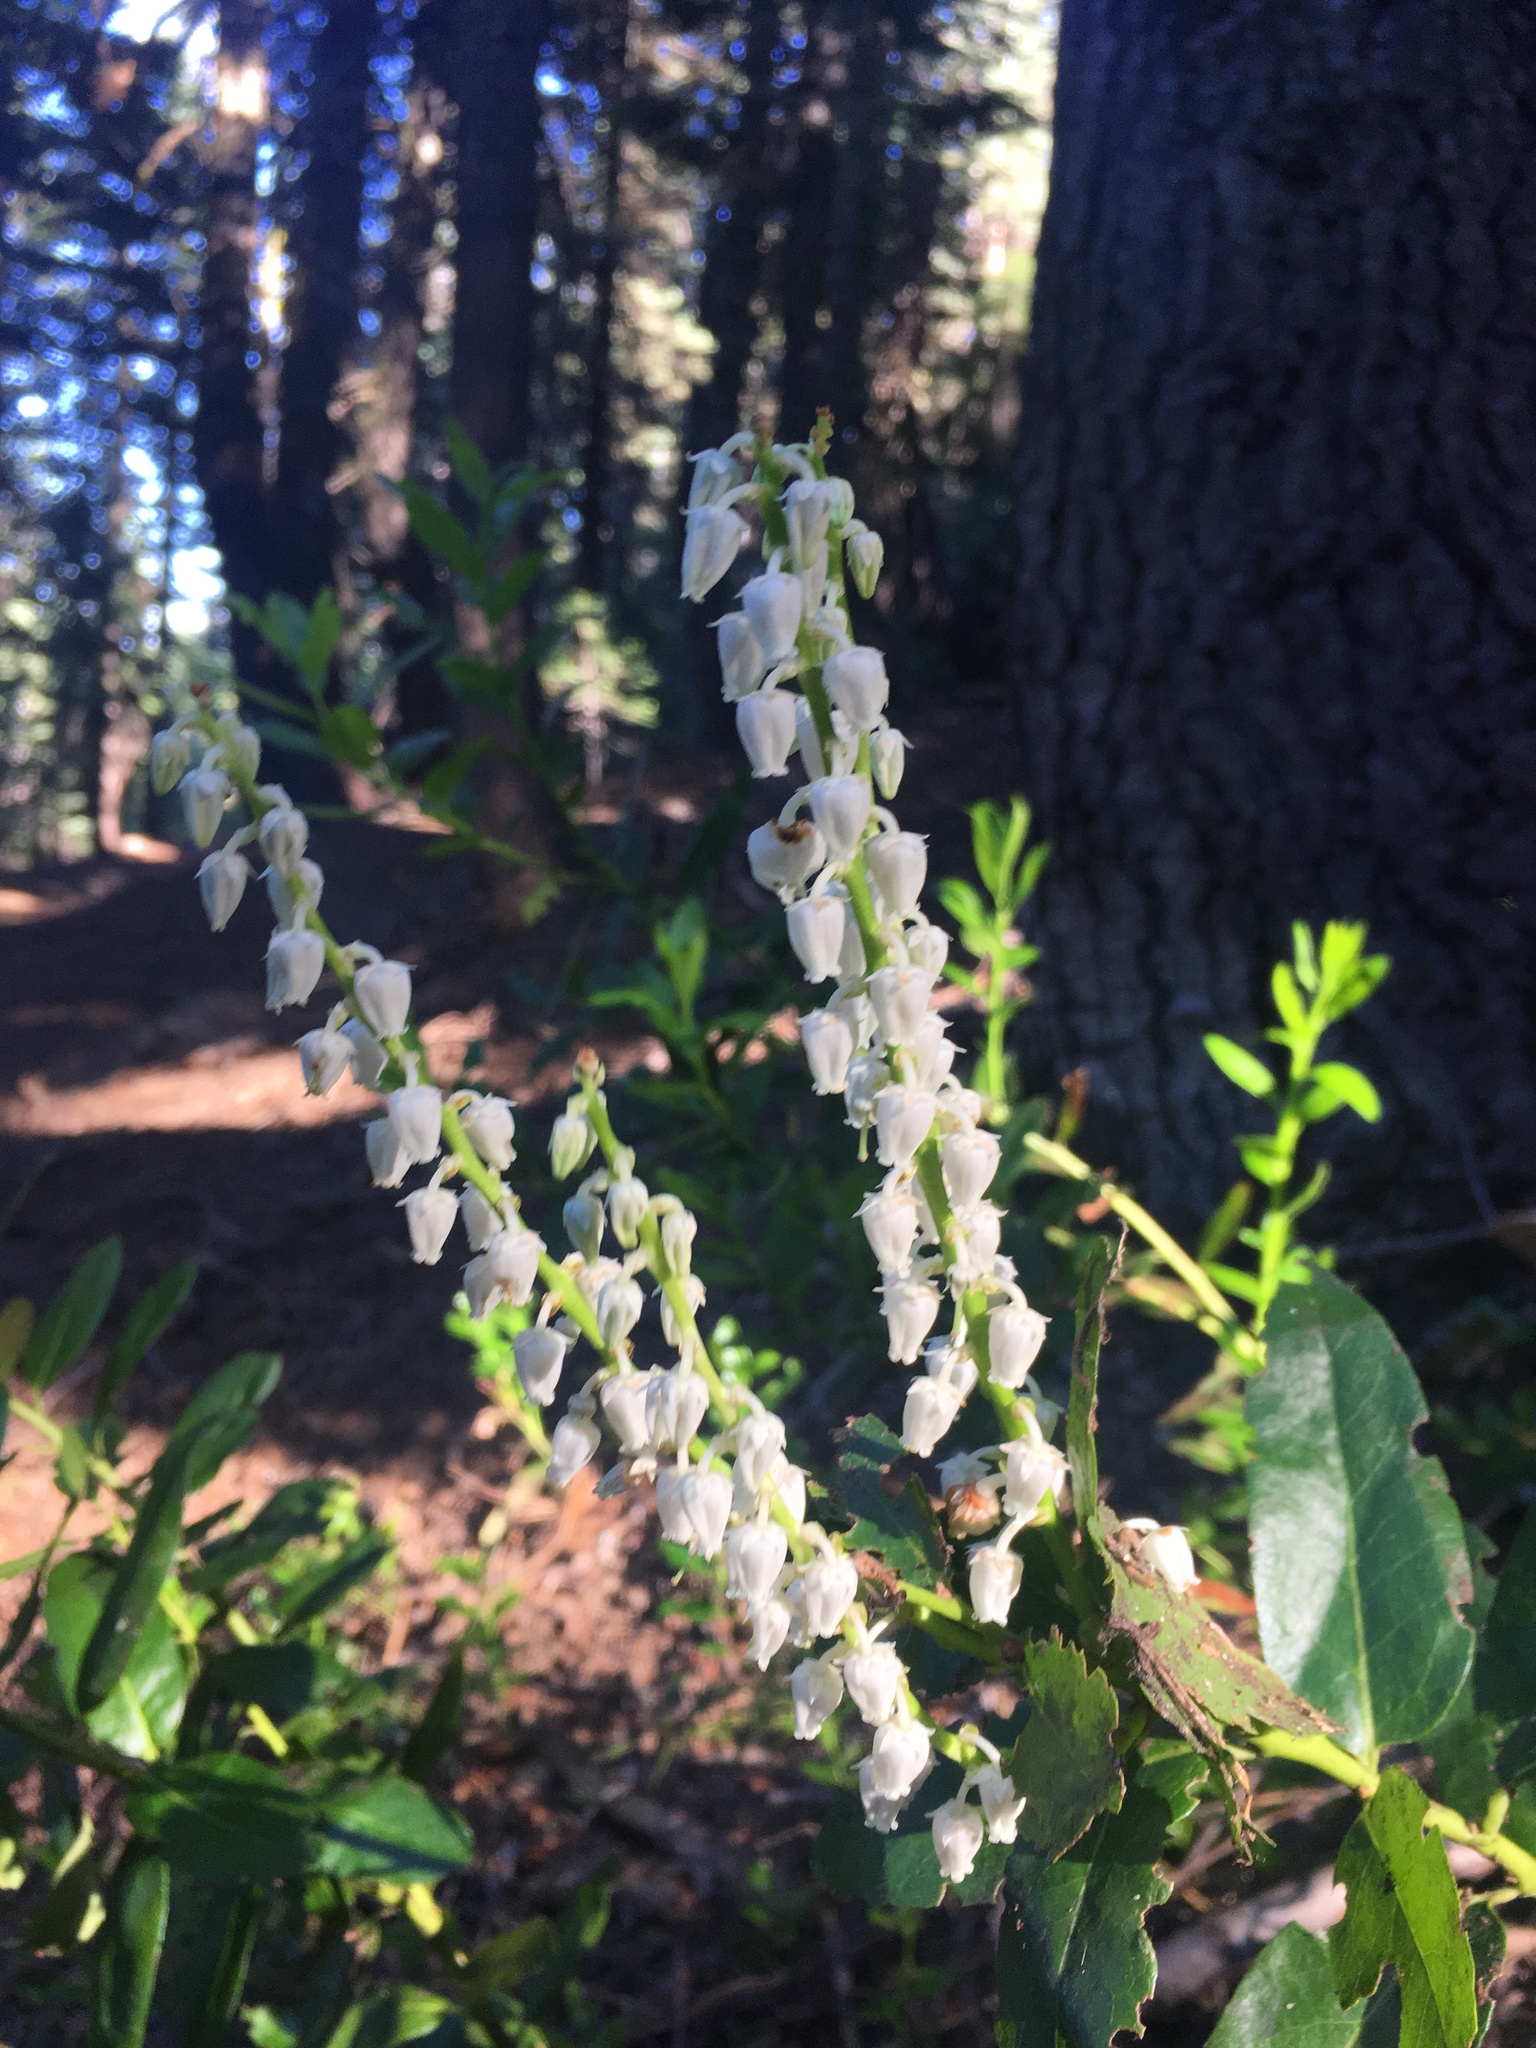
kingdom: Plantae
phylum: Tracheophyta
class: Magnoliopsida
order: Ericales
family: Ericaceae
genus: Leucothoe
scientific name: Leucothoe davisiae
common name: Sierra-laurel
